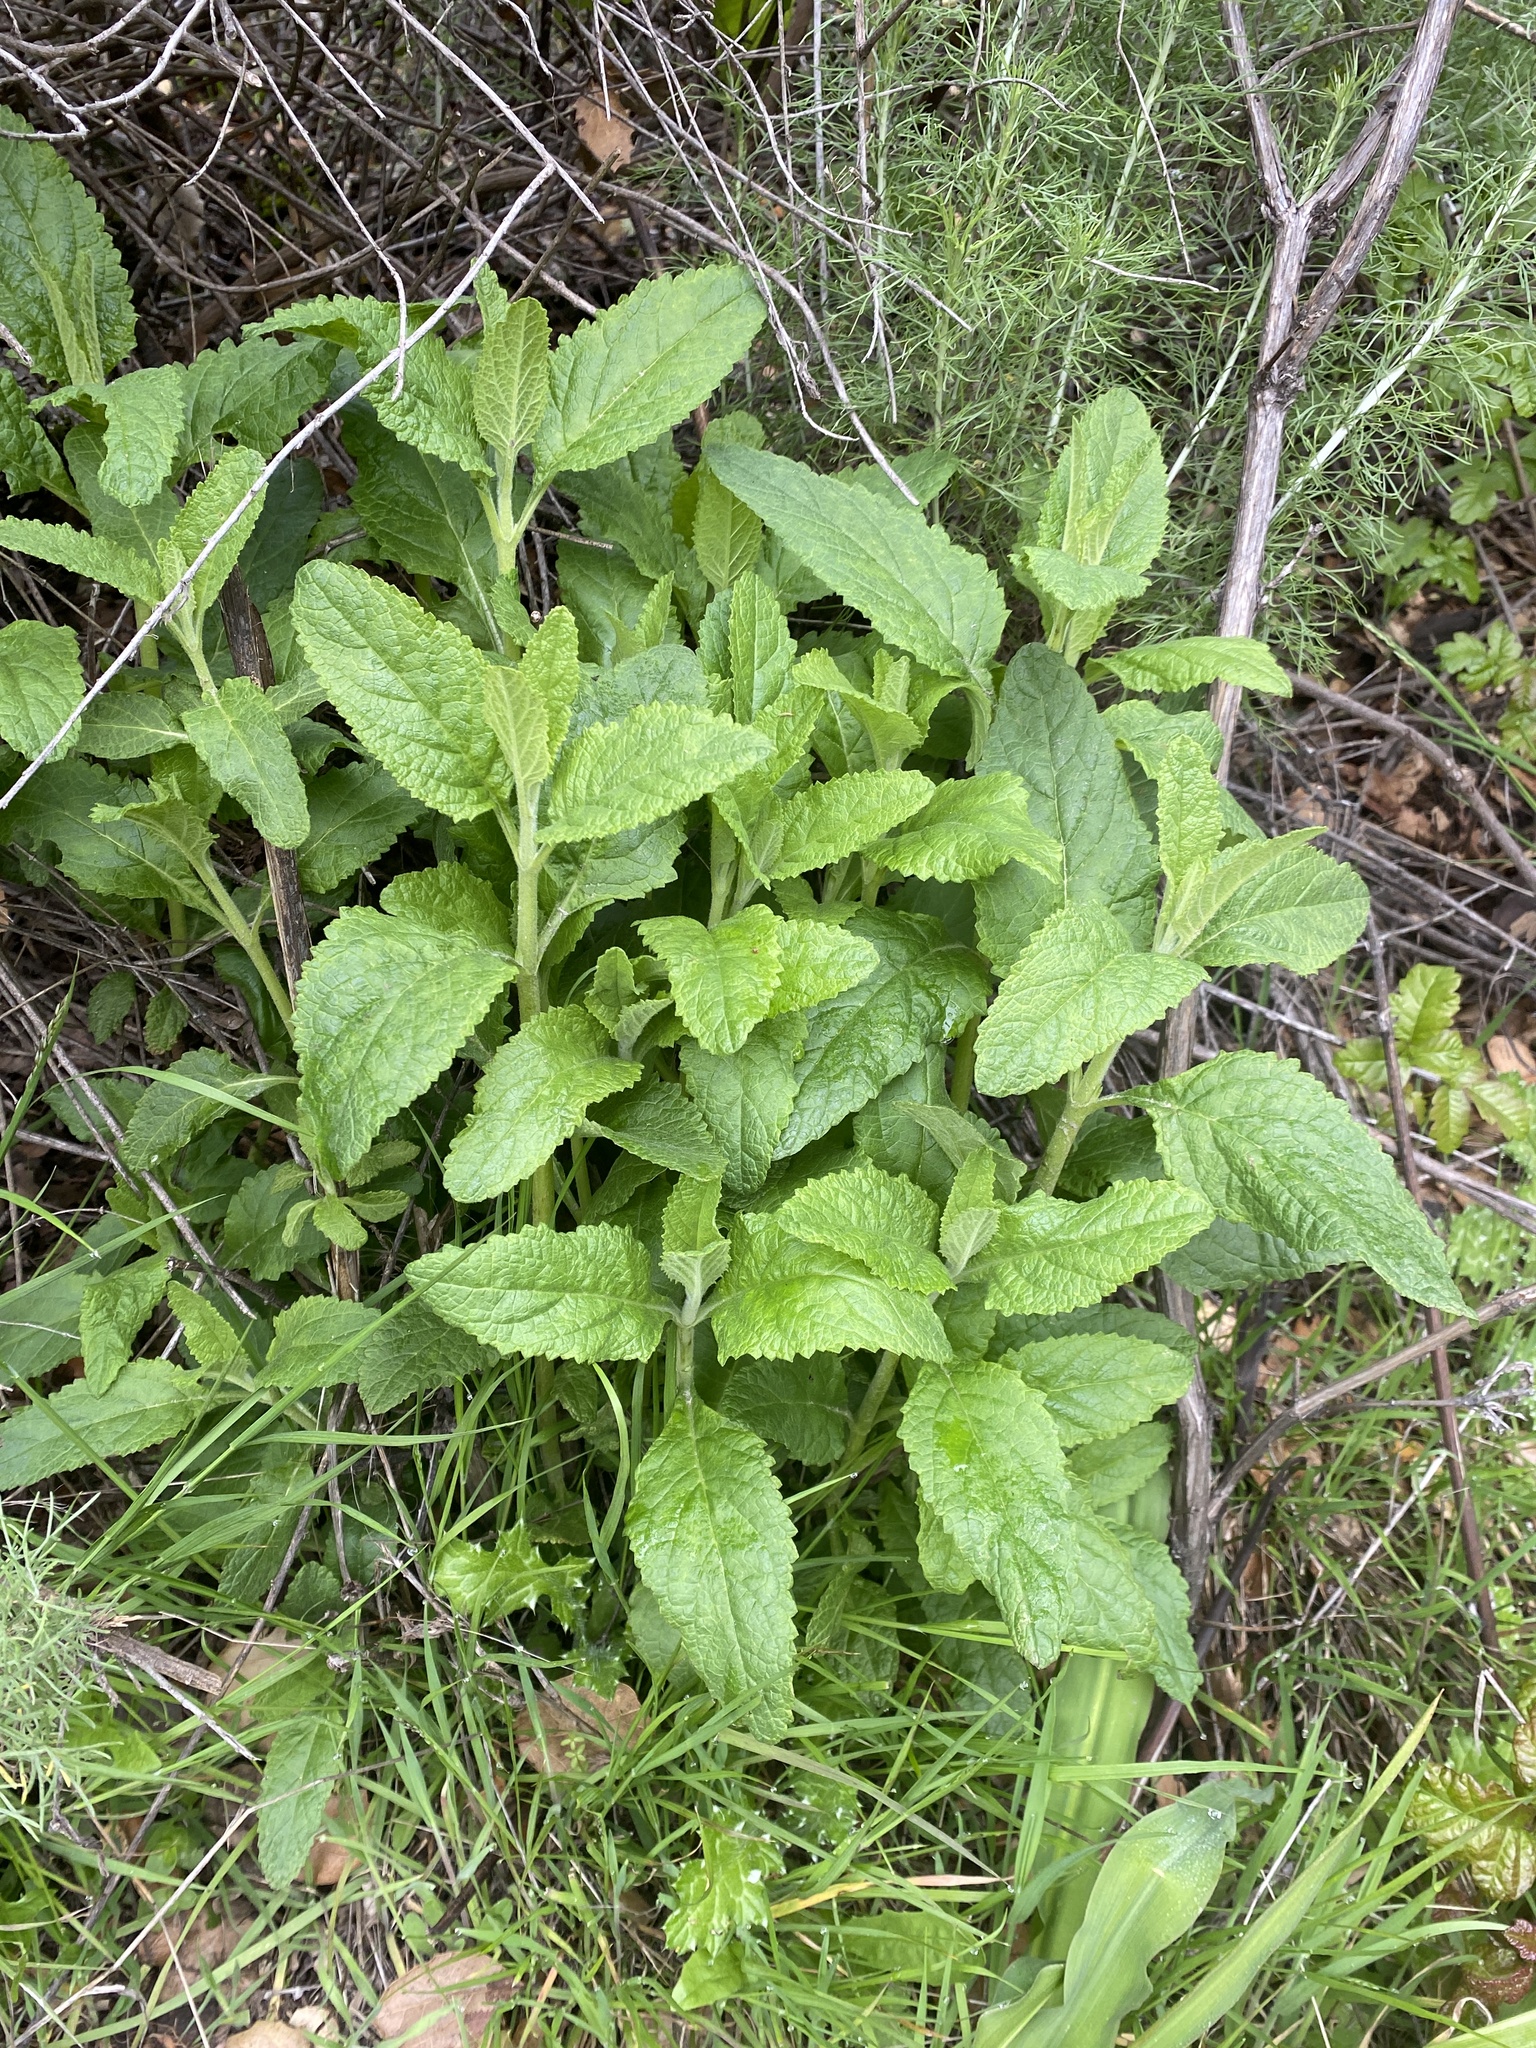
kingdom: Plantae
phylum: Tracheophyta
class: Magnoliopsida
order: Lamiales
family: Lamiaceae
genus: Lepechinia
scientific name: Lepechinia calycina
